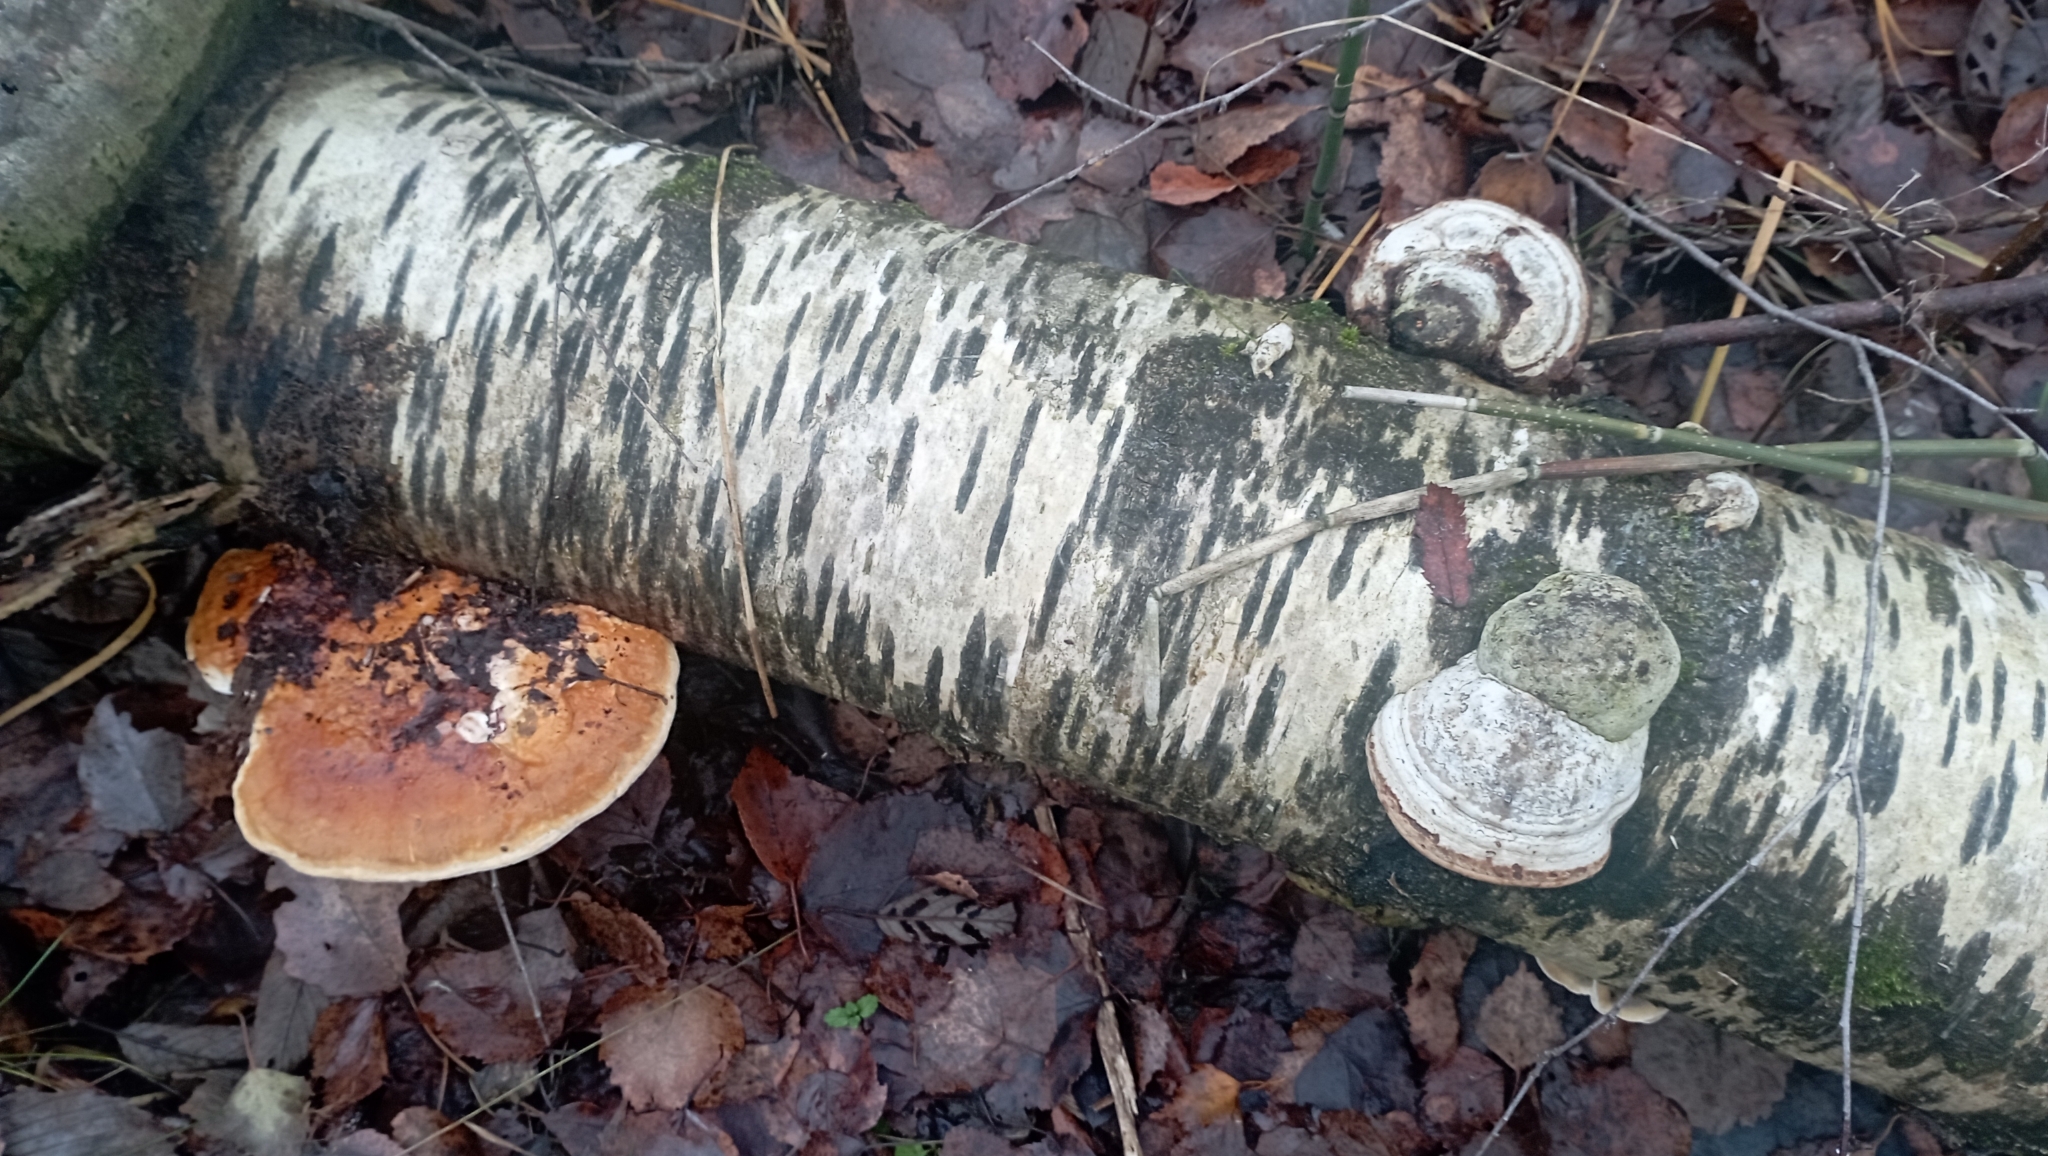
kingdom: Fungi
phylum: Basidiomycota
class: Agaricomycetes
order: Polyporales
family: Fomitopsidaceae
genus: Fomitopsis
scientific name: Fomitopsis pinicola
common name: Red-belted bracket
